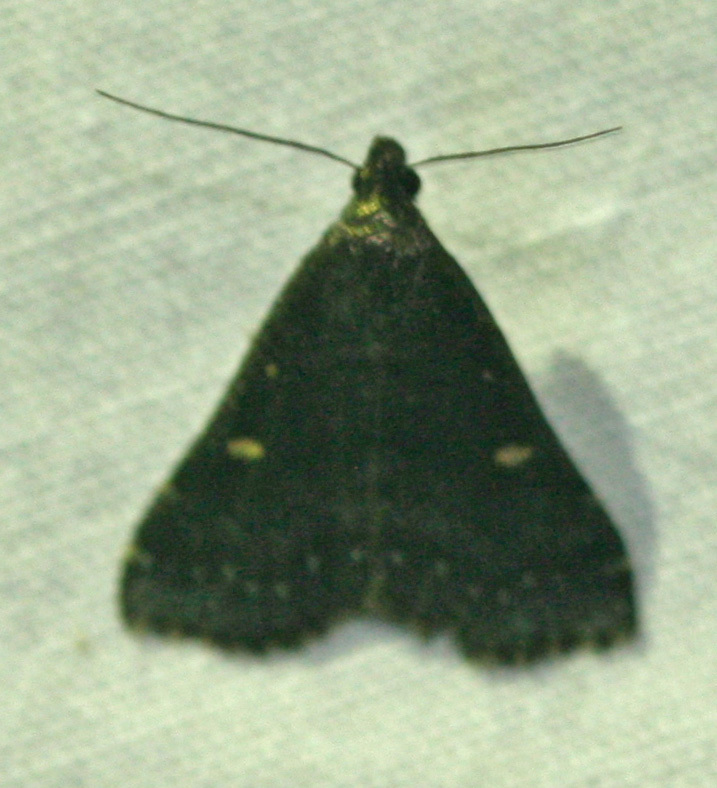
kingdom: Animalia
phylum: Arthropoda
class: Insecta
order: Lepidoptera
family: Erebidae
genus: Tetanolita
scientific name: Tetanolita mynesalis
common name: Smoky tetanolita moth
